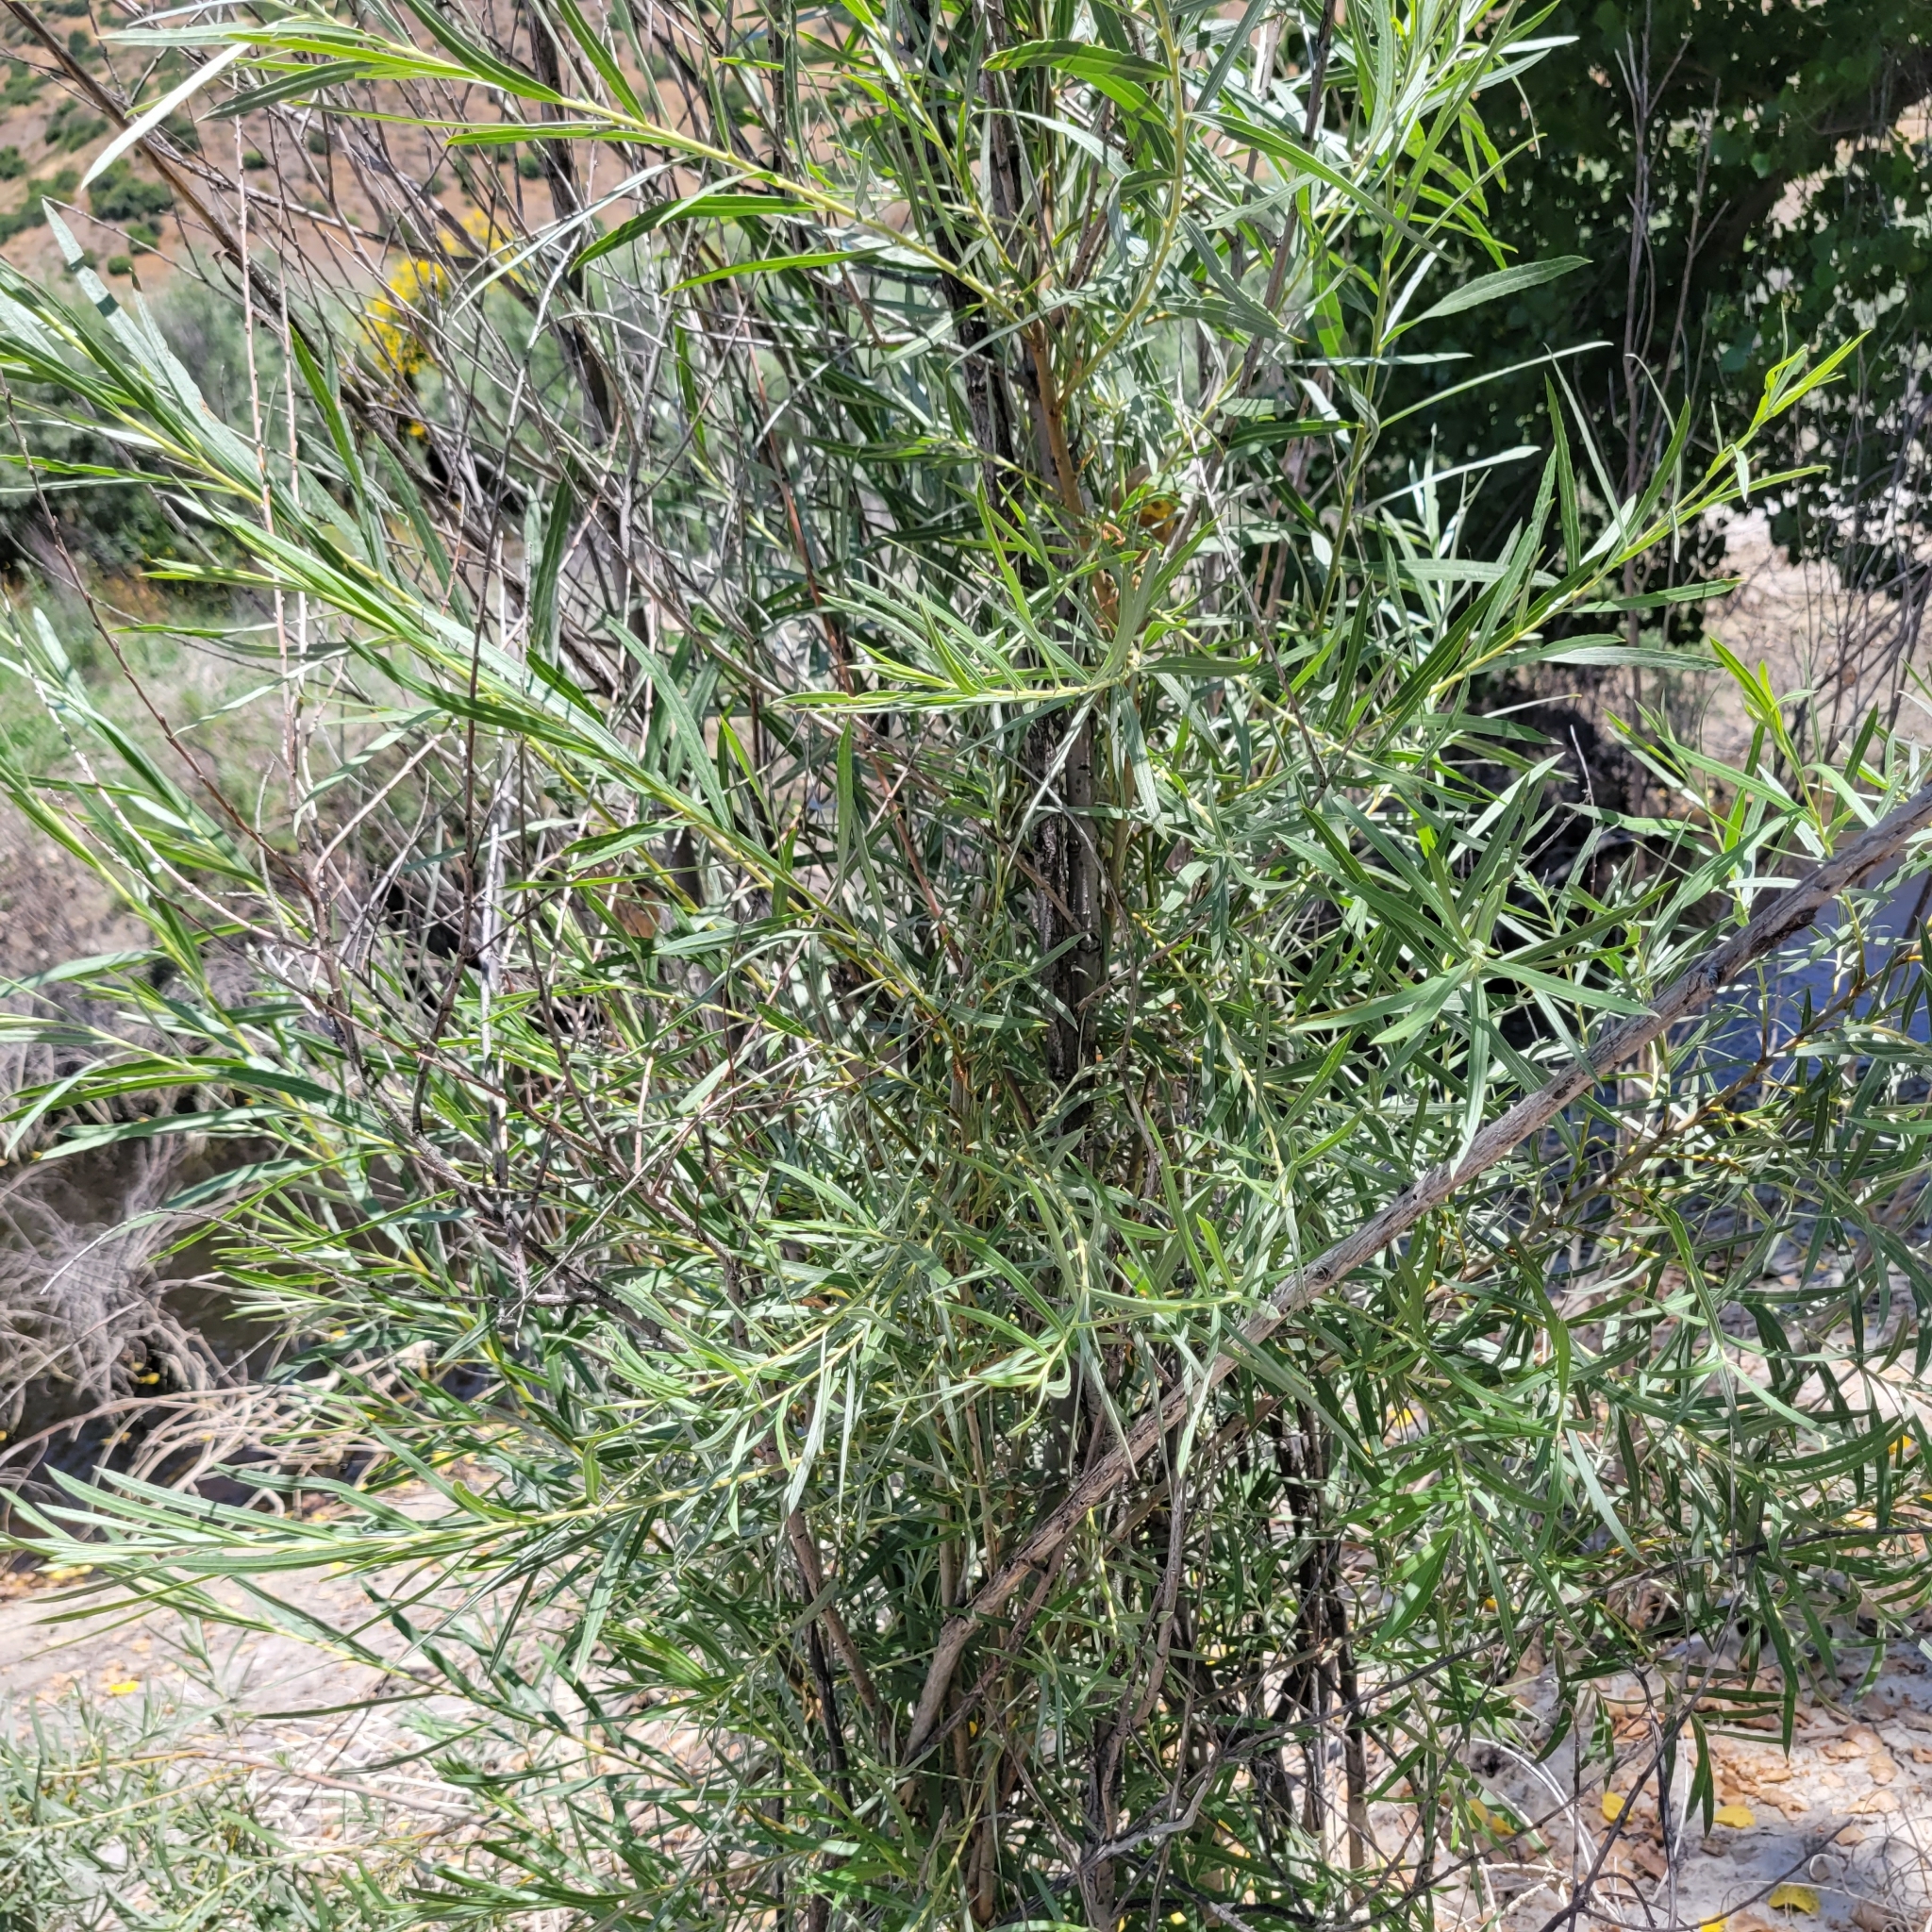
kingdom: Plantae
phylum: Tracheophyta
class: Magnoliopsida
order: Malpighiales
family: Salicaceae
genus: Salix
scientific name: Salix exigua
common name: Coyote willow
